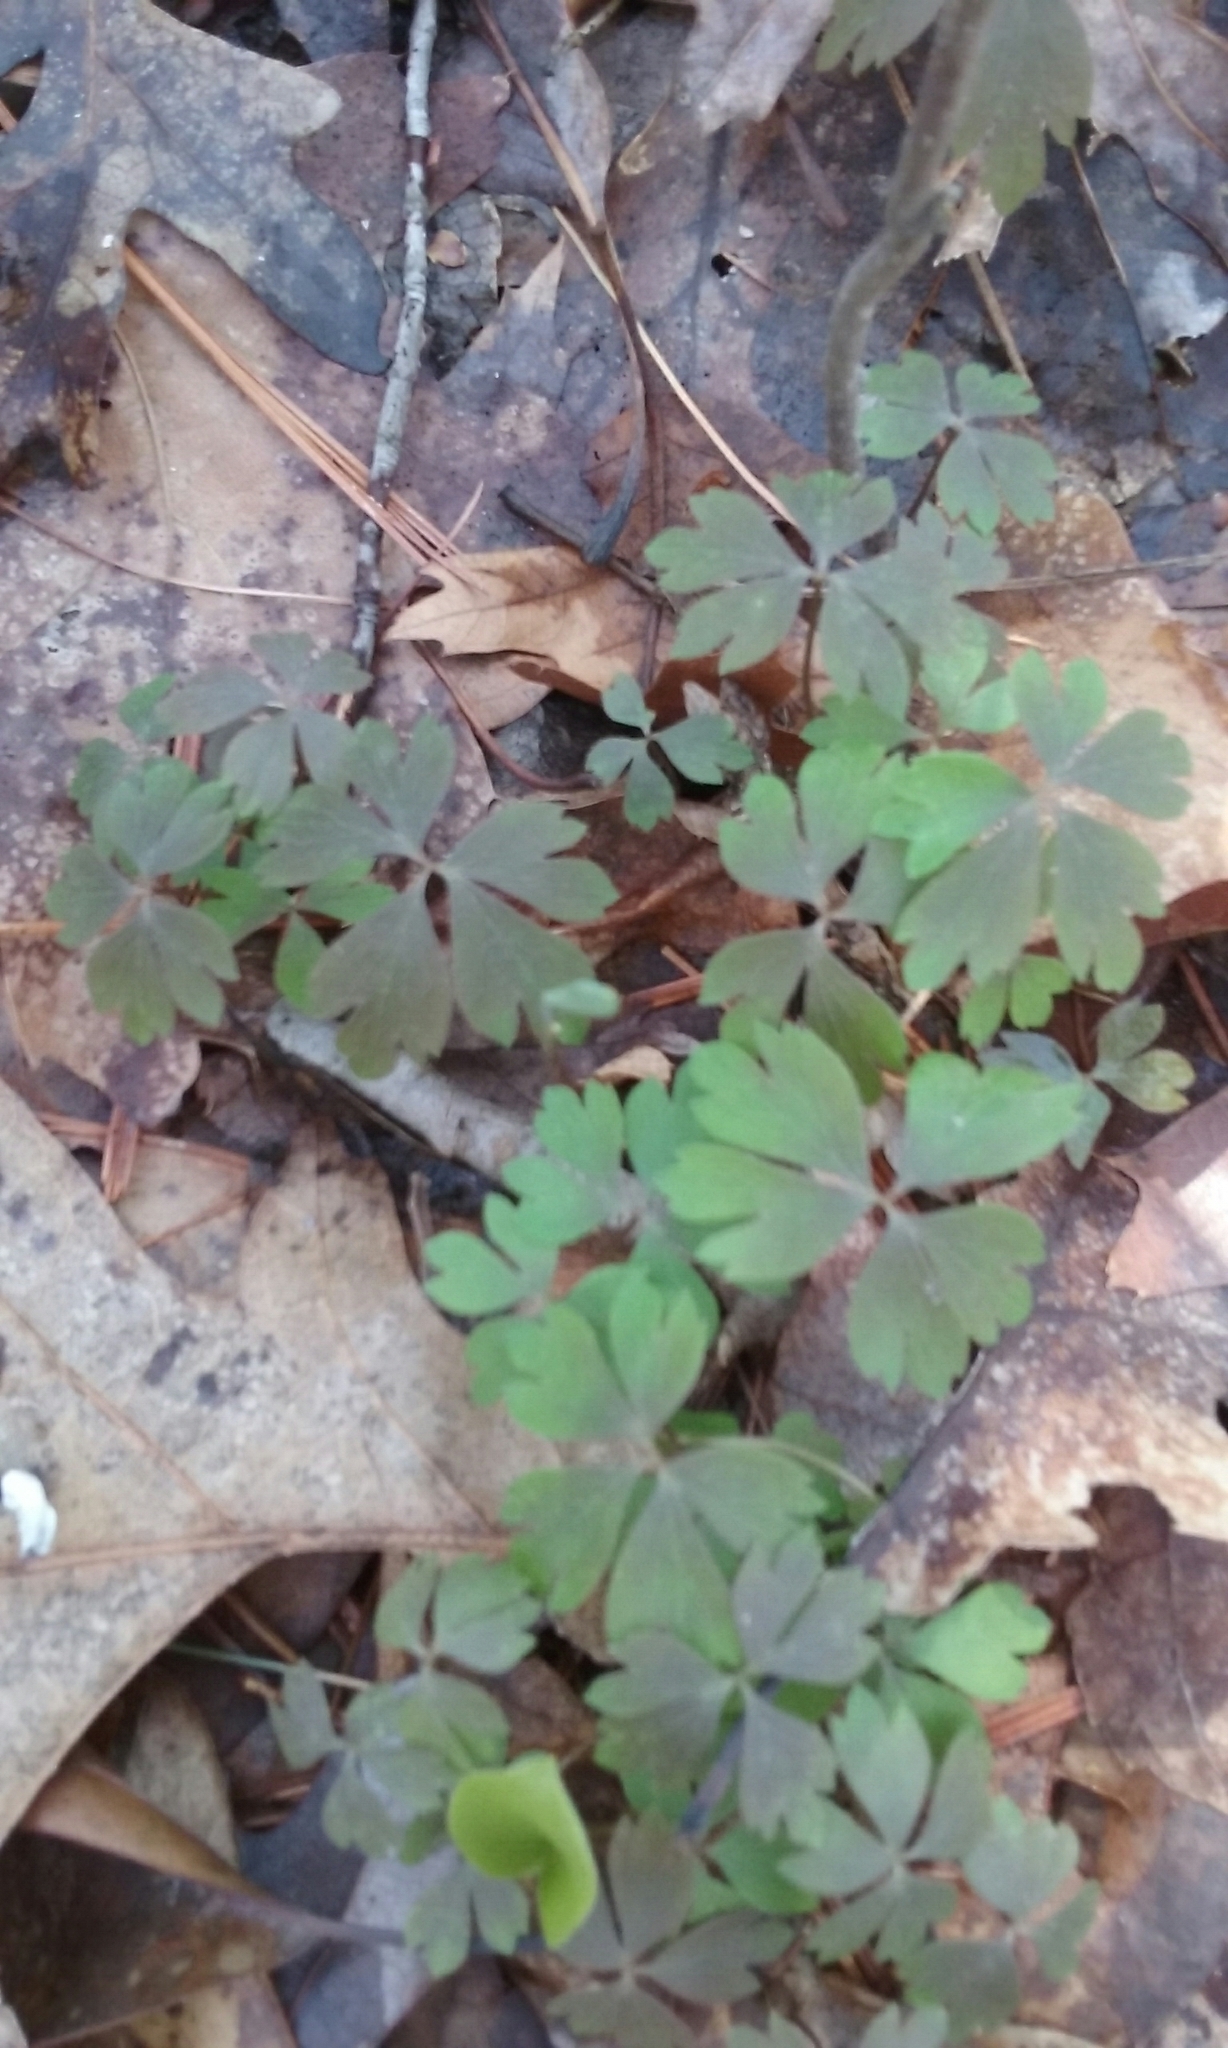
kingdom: Plantae
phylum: Tracheophyta
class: Magnoliopsida
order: Ranunculales
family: Ranunculaceae
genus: Anemone
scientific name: Anemone quinquefolia
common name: Wood anemone
